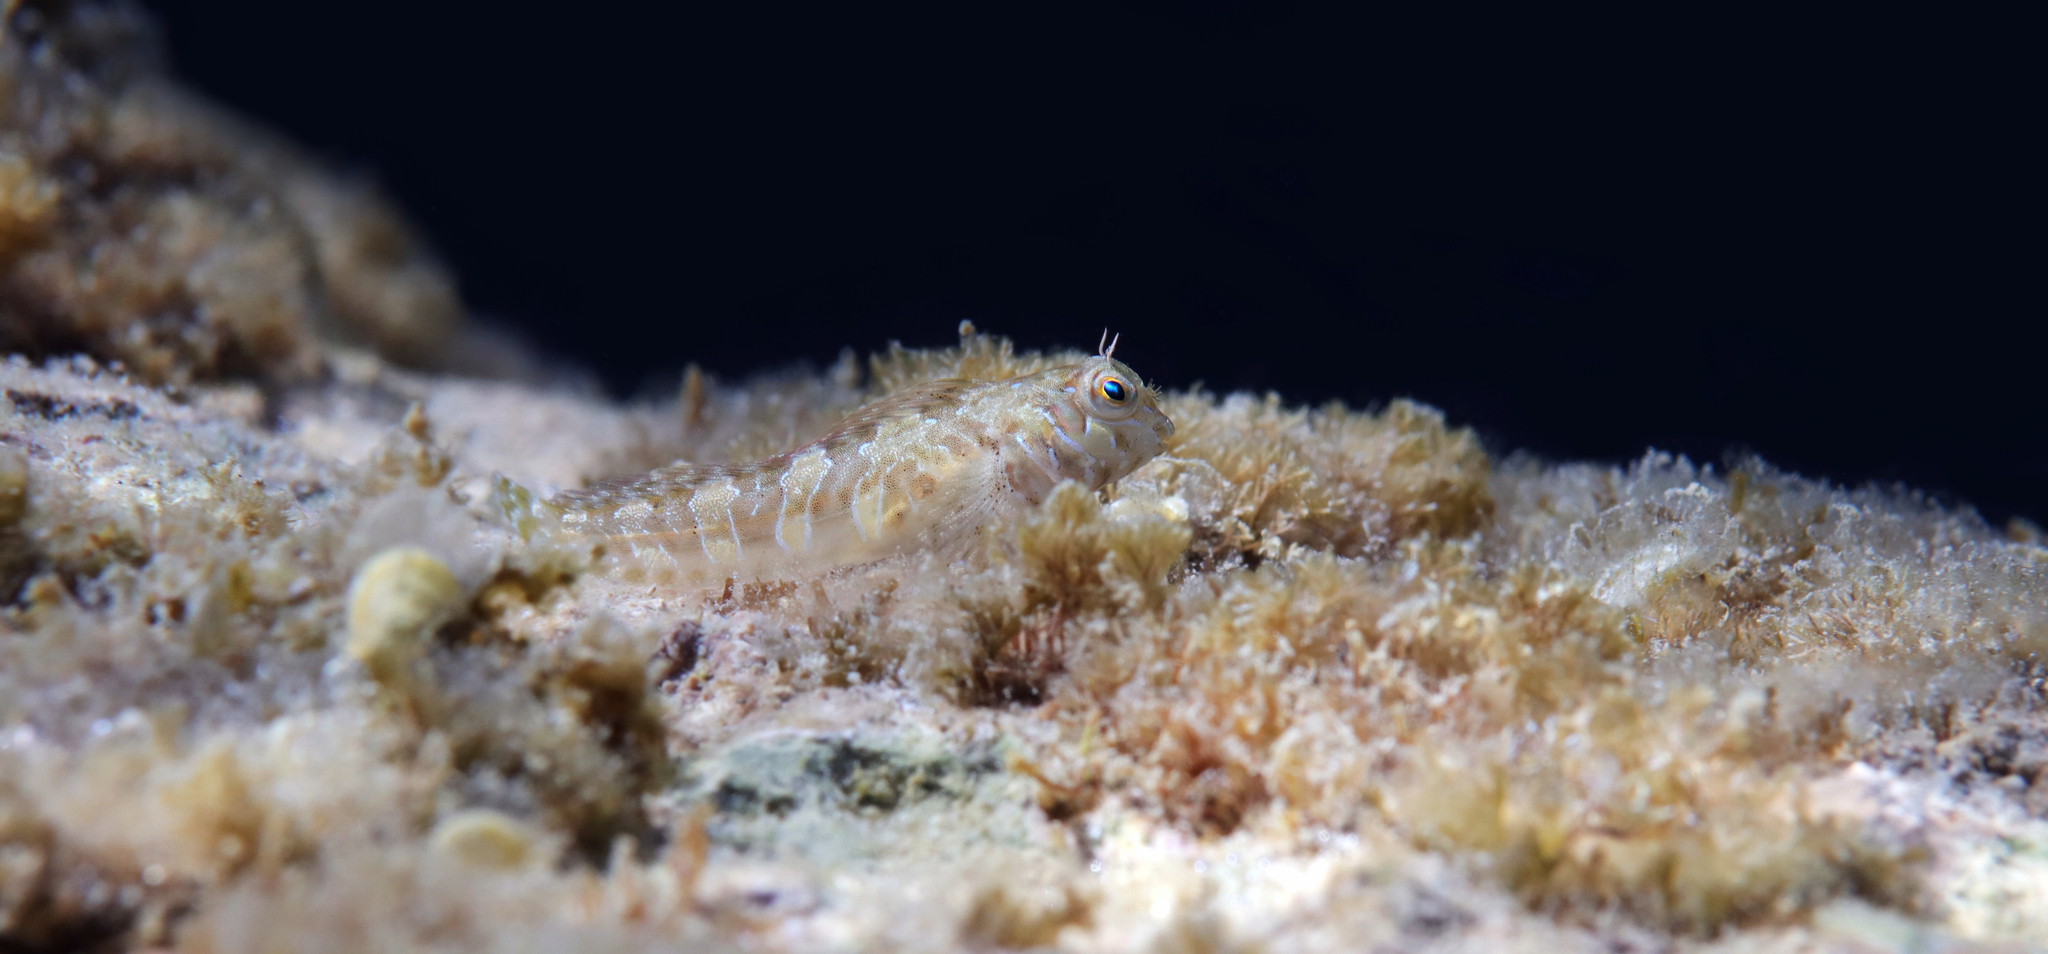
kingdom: Animalia
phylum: Chordata
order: Perciformes
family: Blenniidae
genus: Aidablennius
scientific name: Aidablennius sphynx
